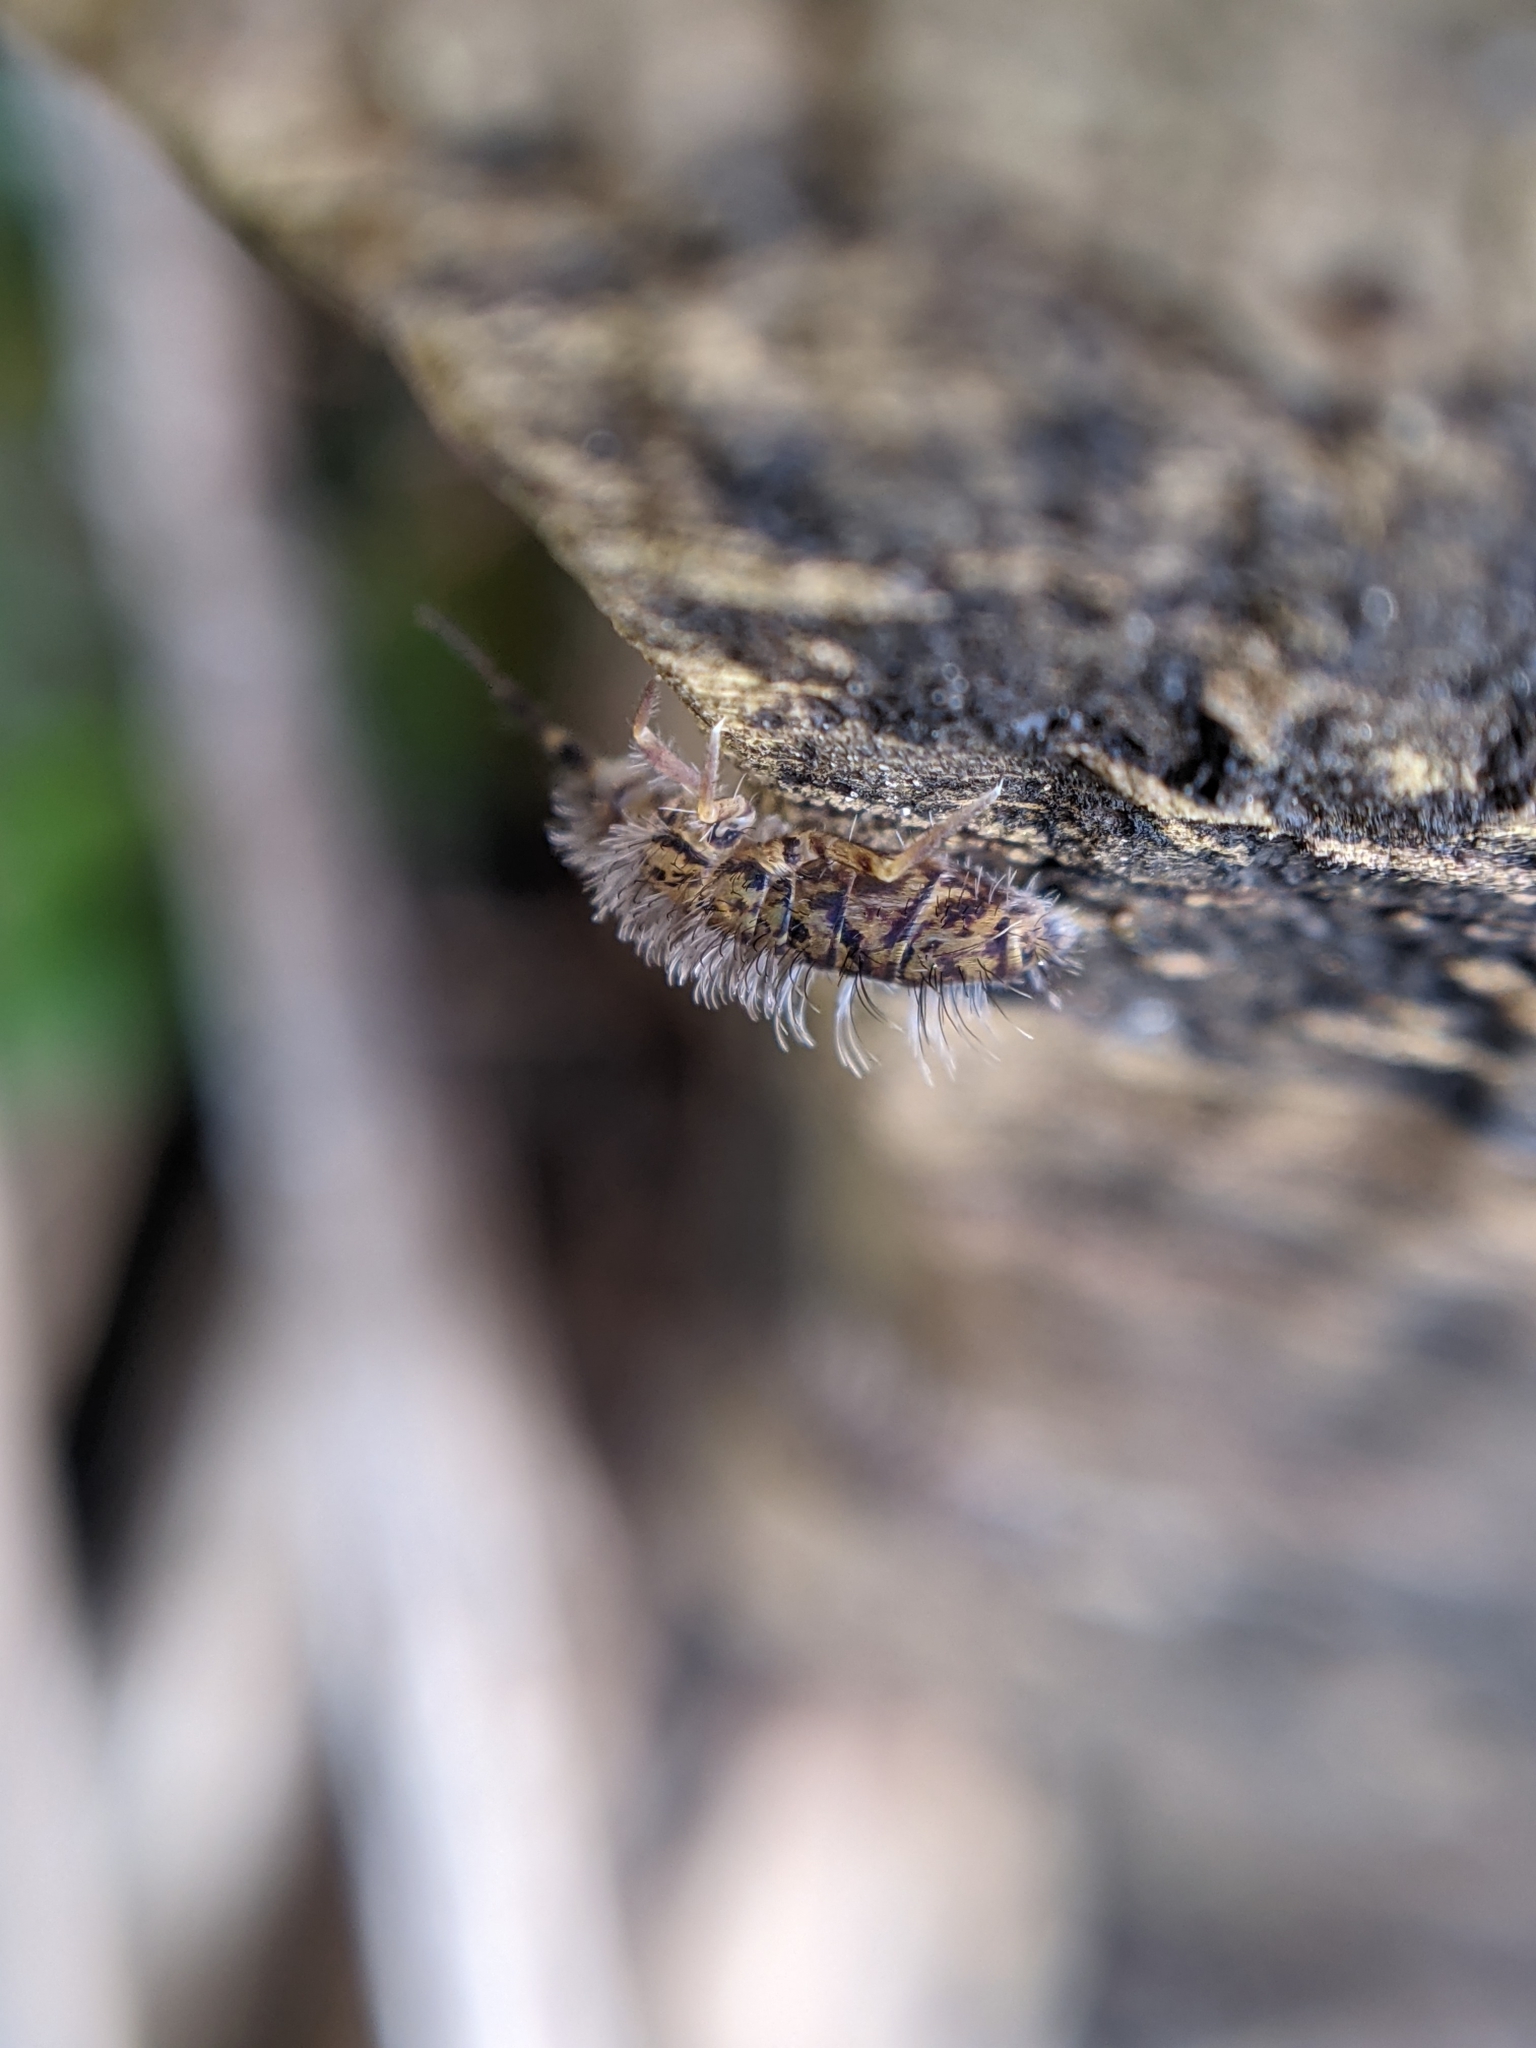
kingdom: Animalia
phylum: Arthropoda
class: Collembola
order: Entomobryomorpha
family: Orchesellidae
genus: Orchesella
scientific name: Orchesella villosa
